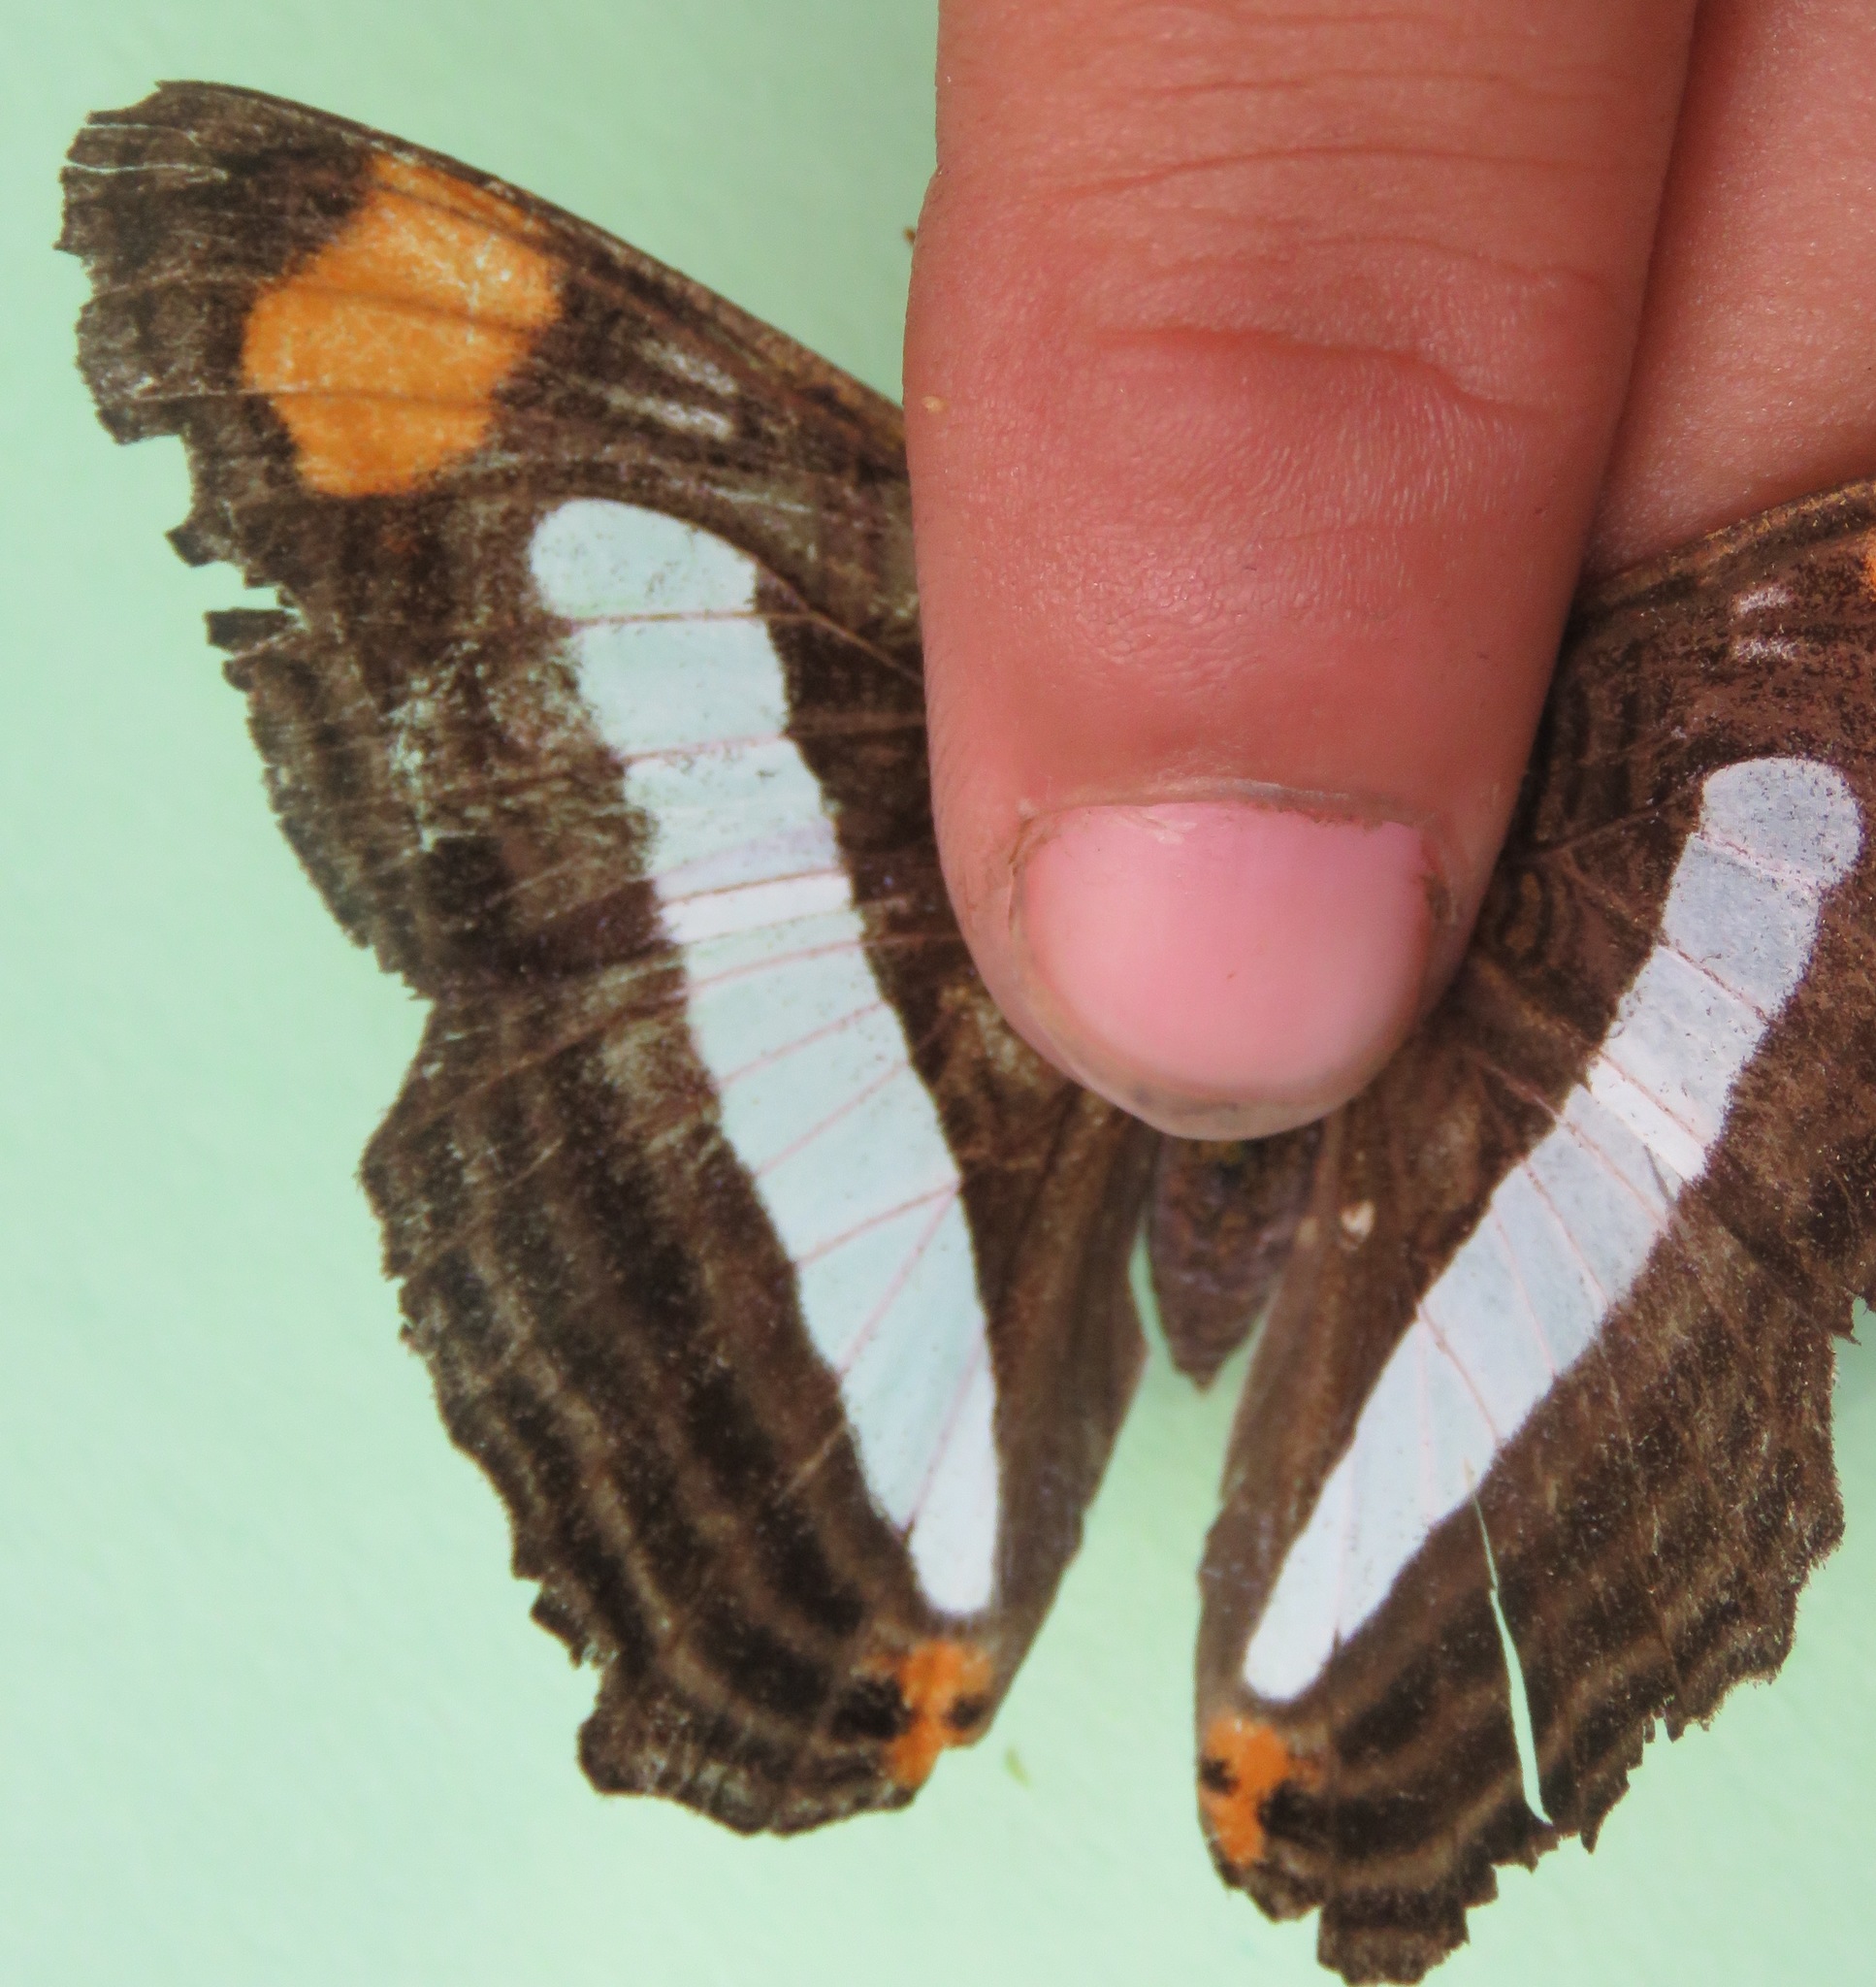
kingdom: Animalia
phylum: Arthropoda
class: Insecta
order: Lepidoptera
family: Nymphalidae
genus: Limenitis
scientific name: Limenitis iphiclus
